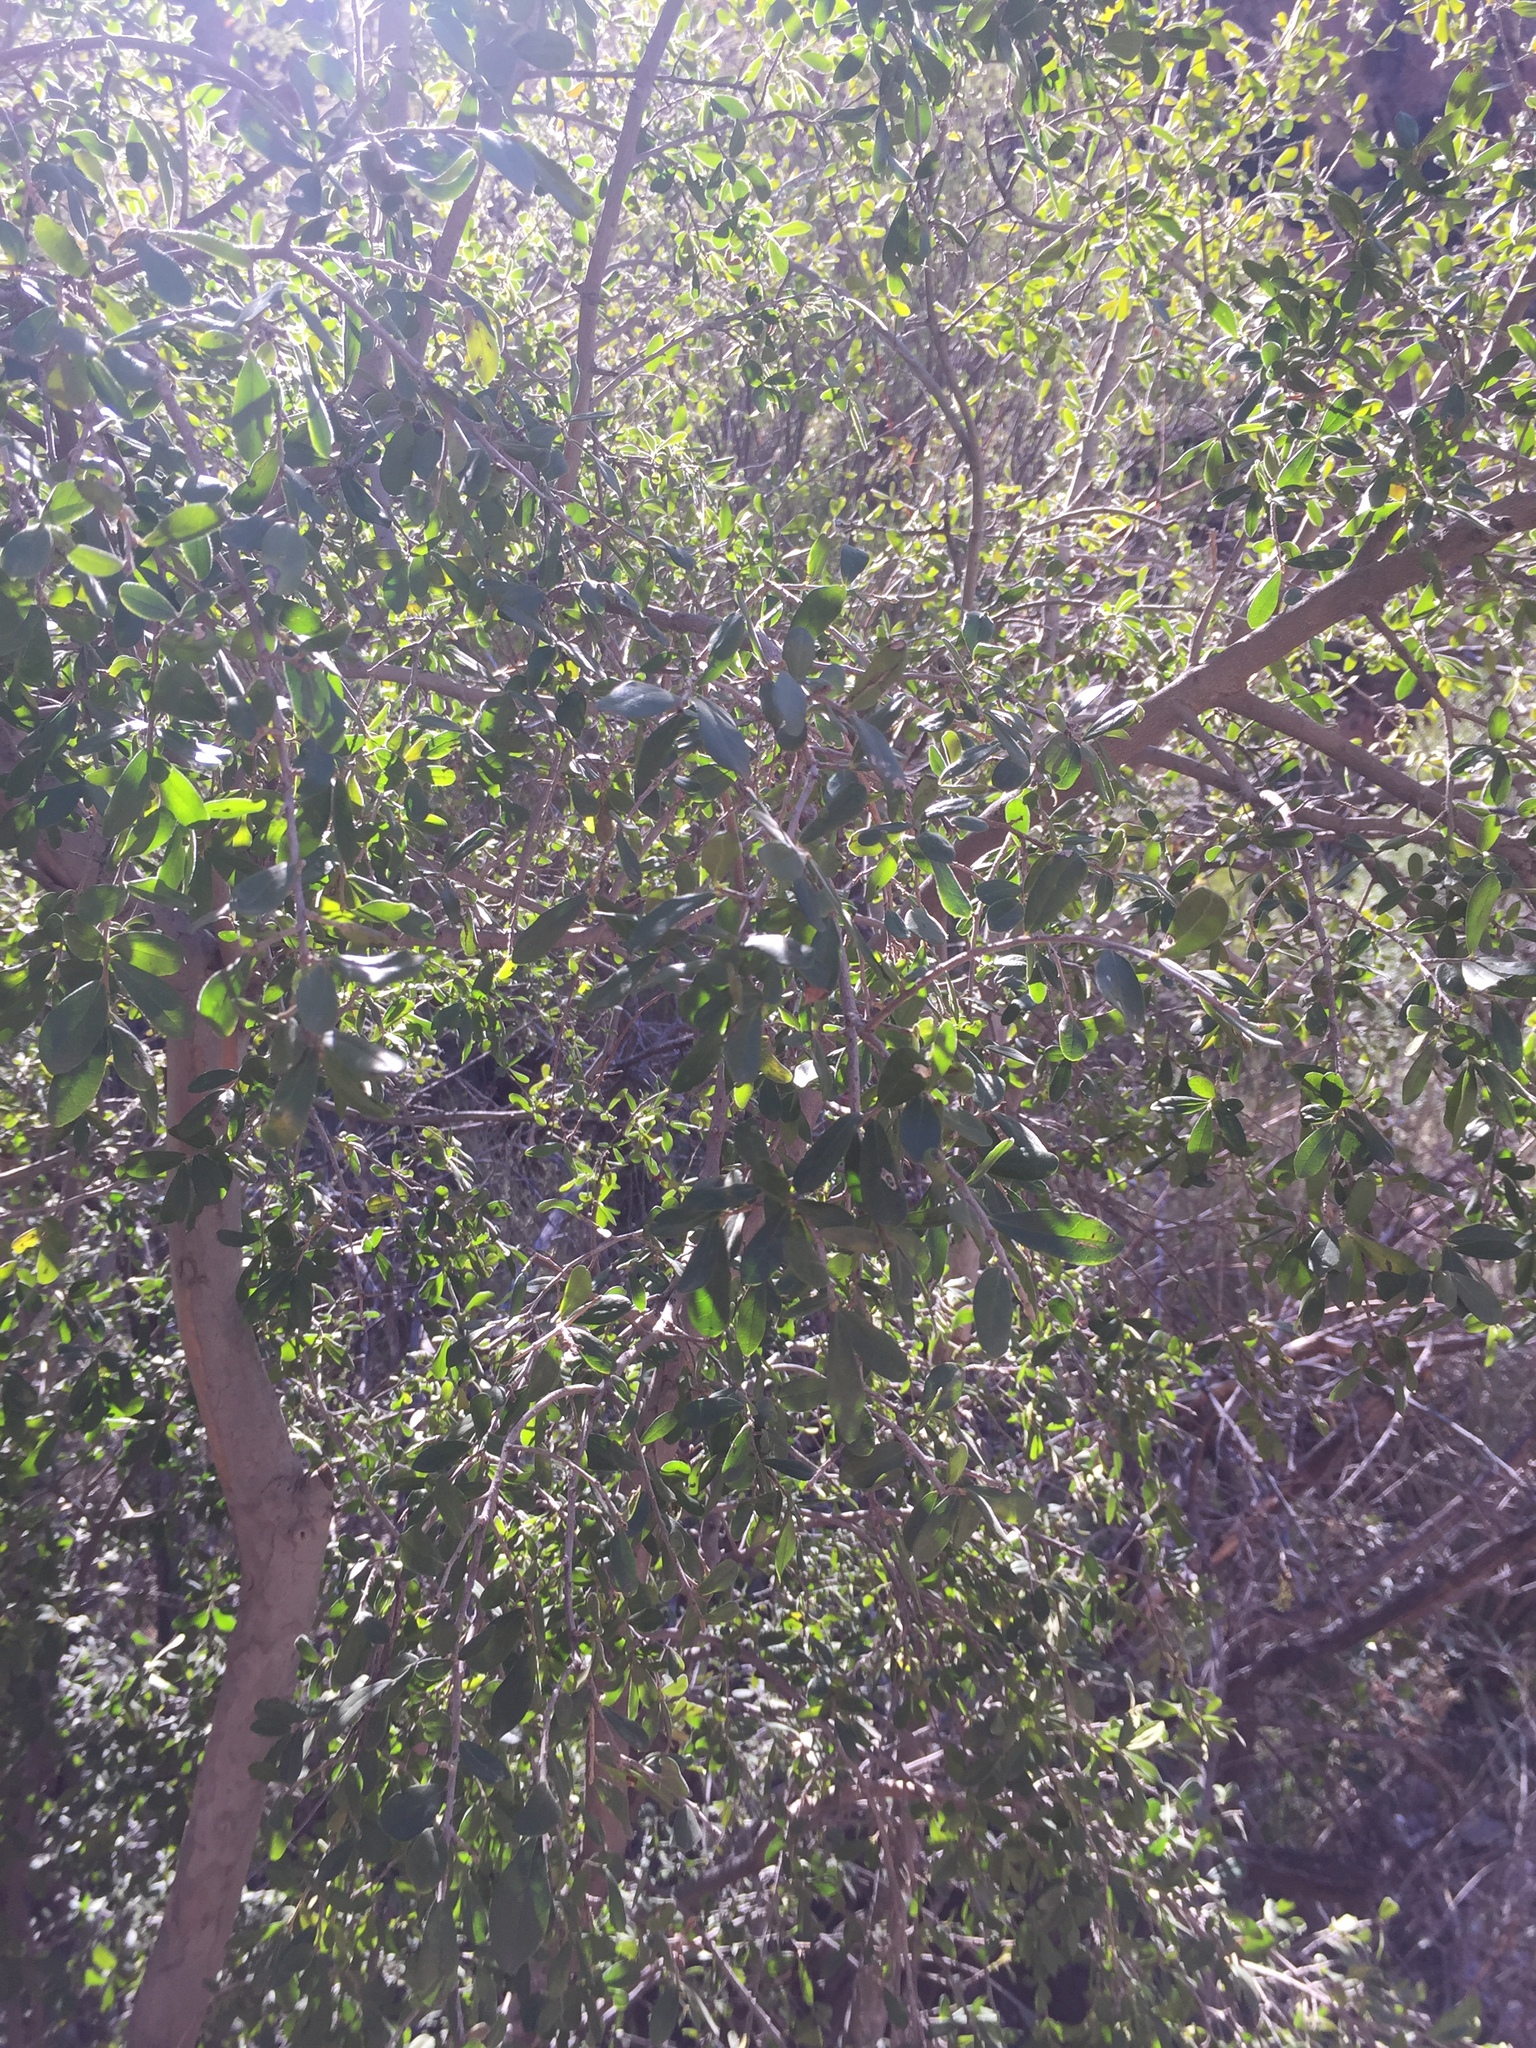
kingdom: Plantae
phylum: Tracheophyta
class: Magnoliopsida
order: Sapindales
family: Anacardiaceae
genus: Rhus
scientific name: Rhus virens
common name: Evergreen sumac
